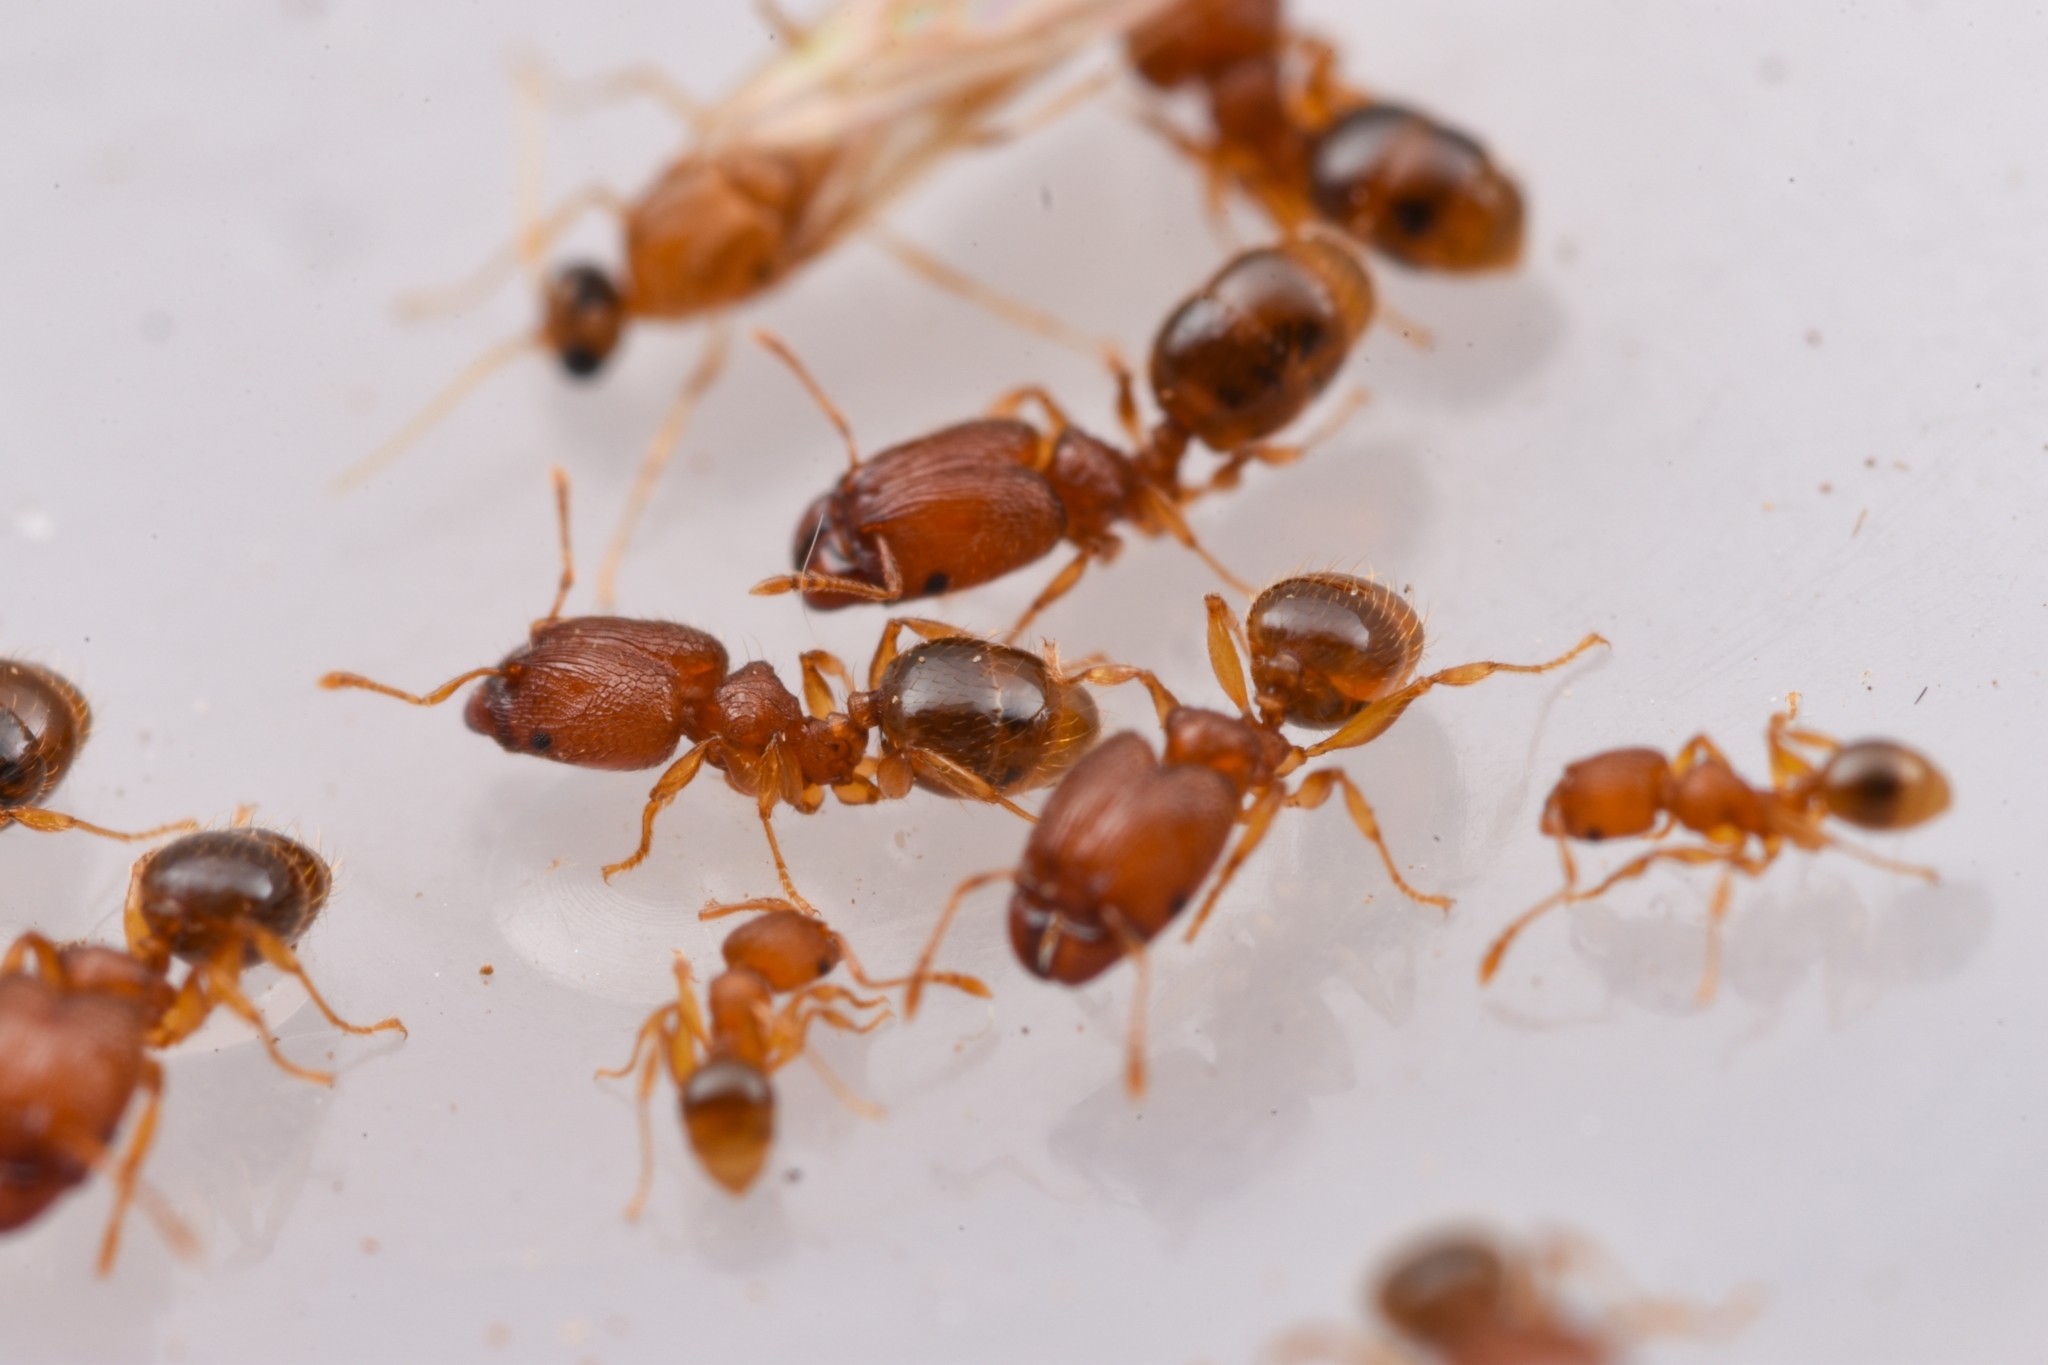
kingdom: Animalia
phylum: Arthropoda
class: Insecta
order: Hymenoptera
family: Formicidae
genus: Pheidole
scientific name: Pheidole ryukyuensis
